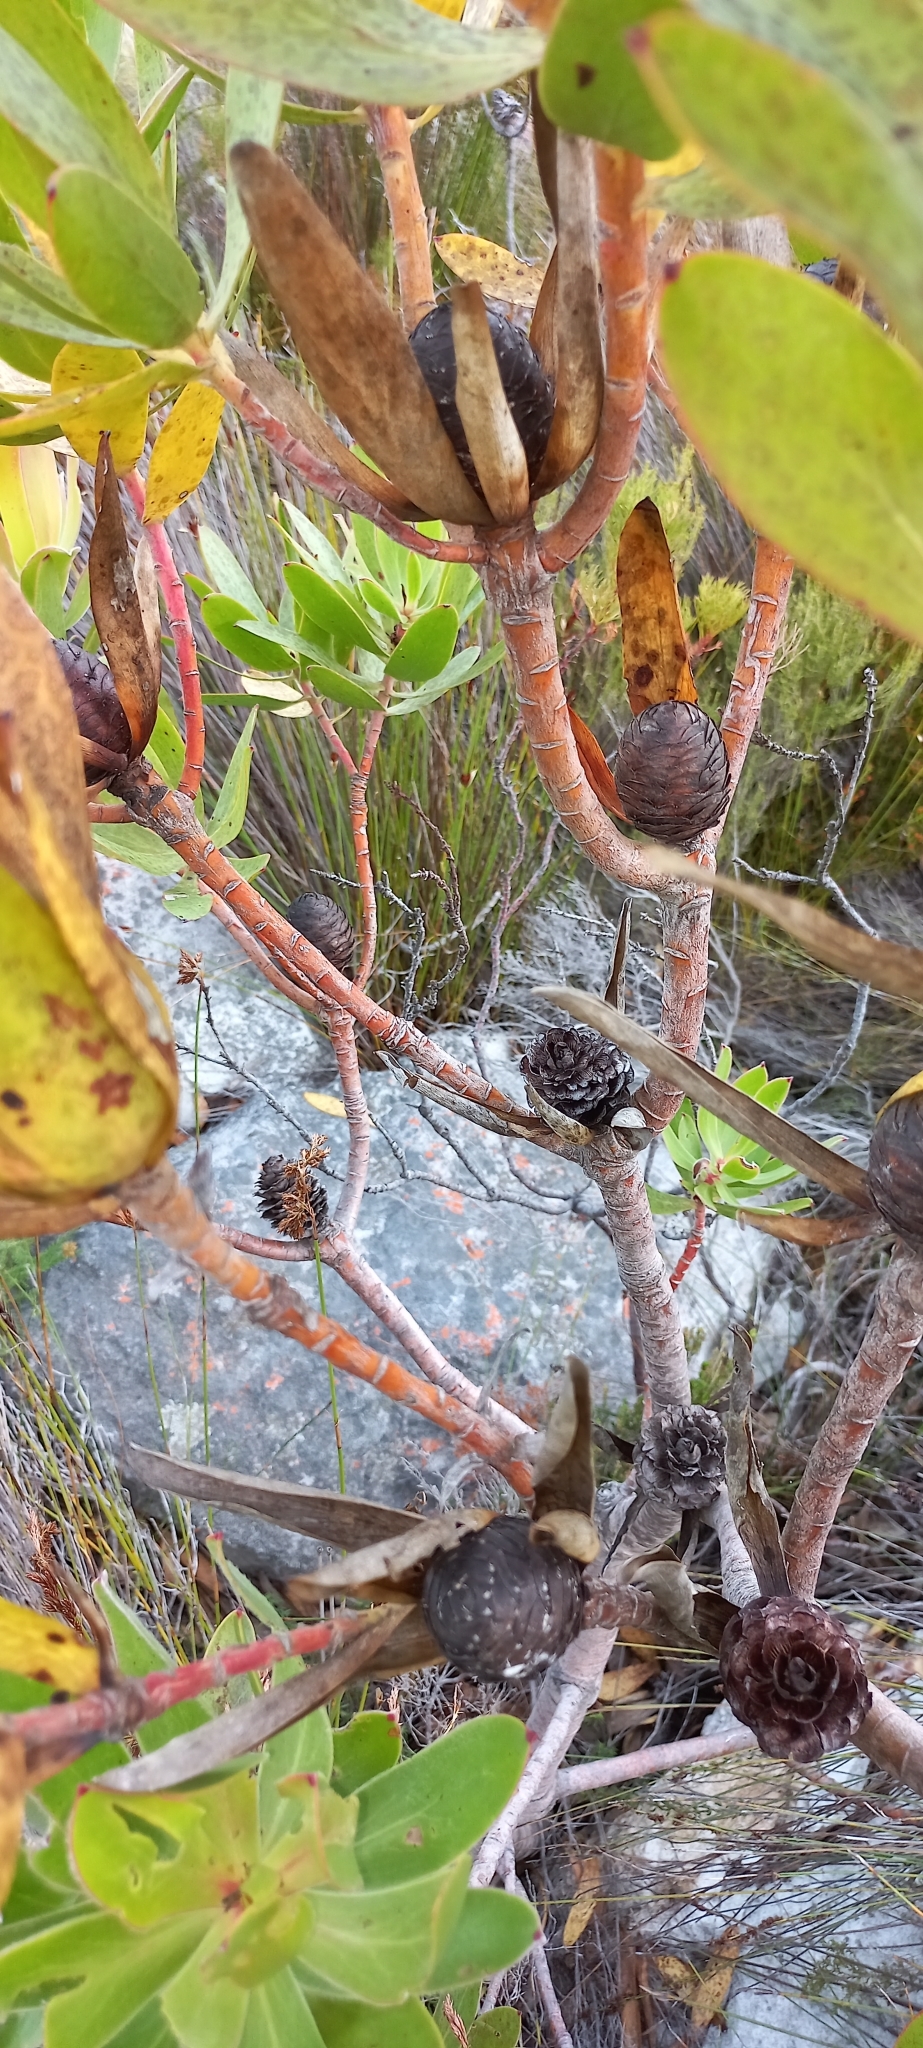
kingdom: Plantae
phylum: Tracheophyta
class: Magnoliopsida
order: Proteales
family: Proteaceae
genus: Leucadendron
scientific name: Leucadendron gandogeri
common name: Broad-leaf conebush
